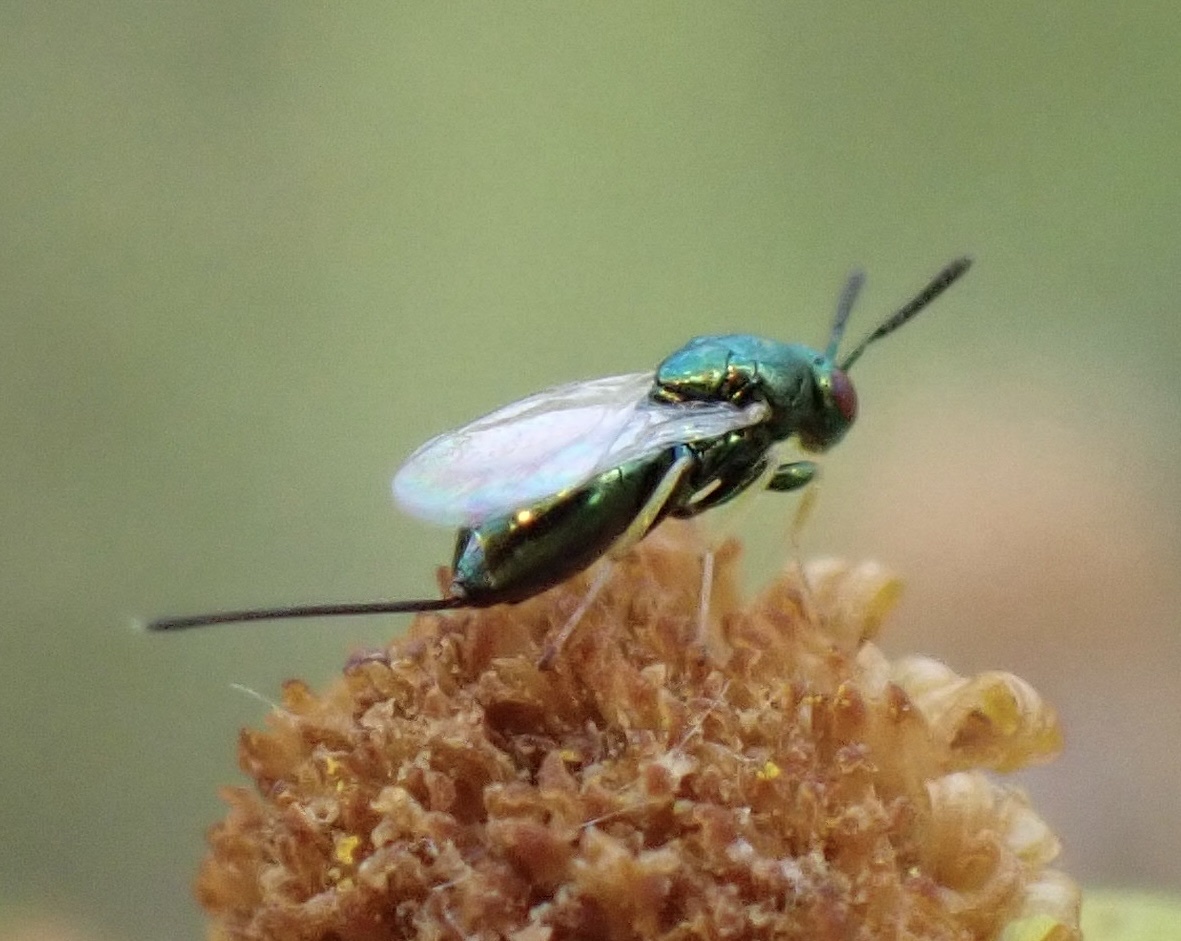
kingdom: Animalia
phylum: Arthropoda
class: Insecta
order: Hymenoptera
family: Torymidae
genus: Pseudotorymus
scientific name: Pseudotorymus sapphyrinus
